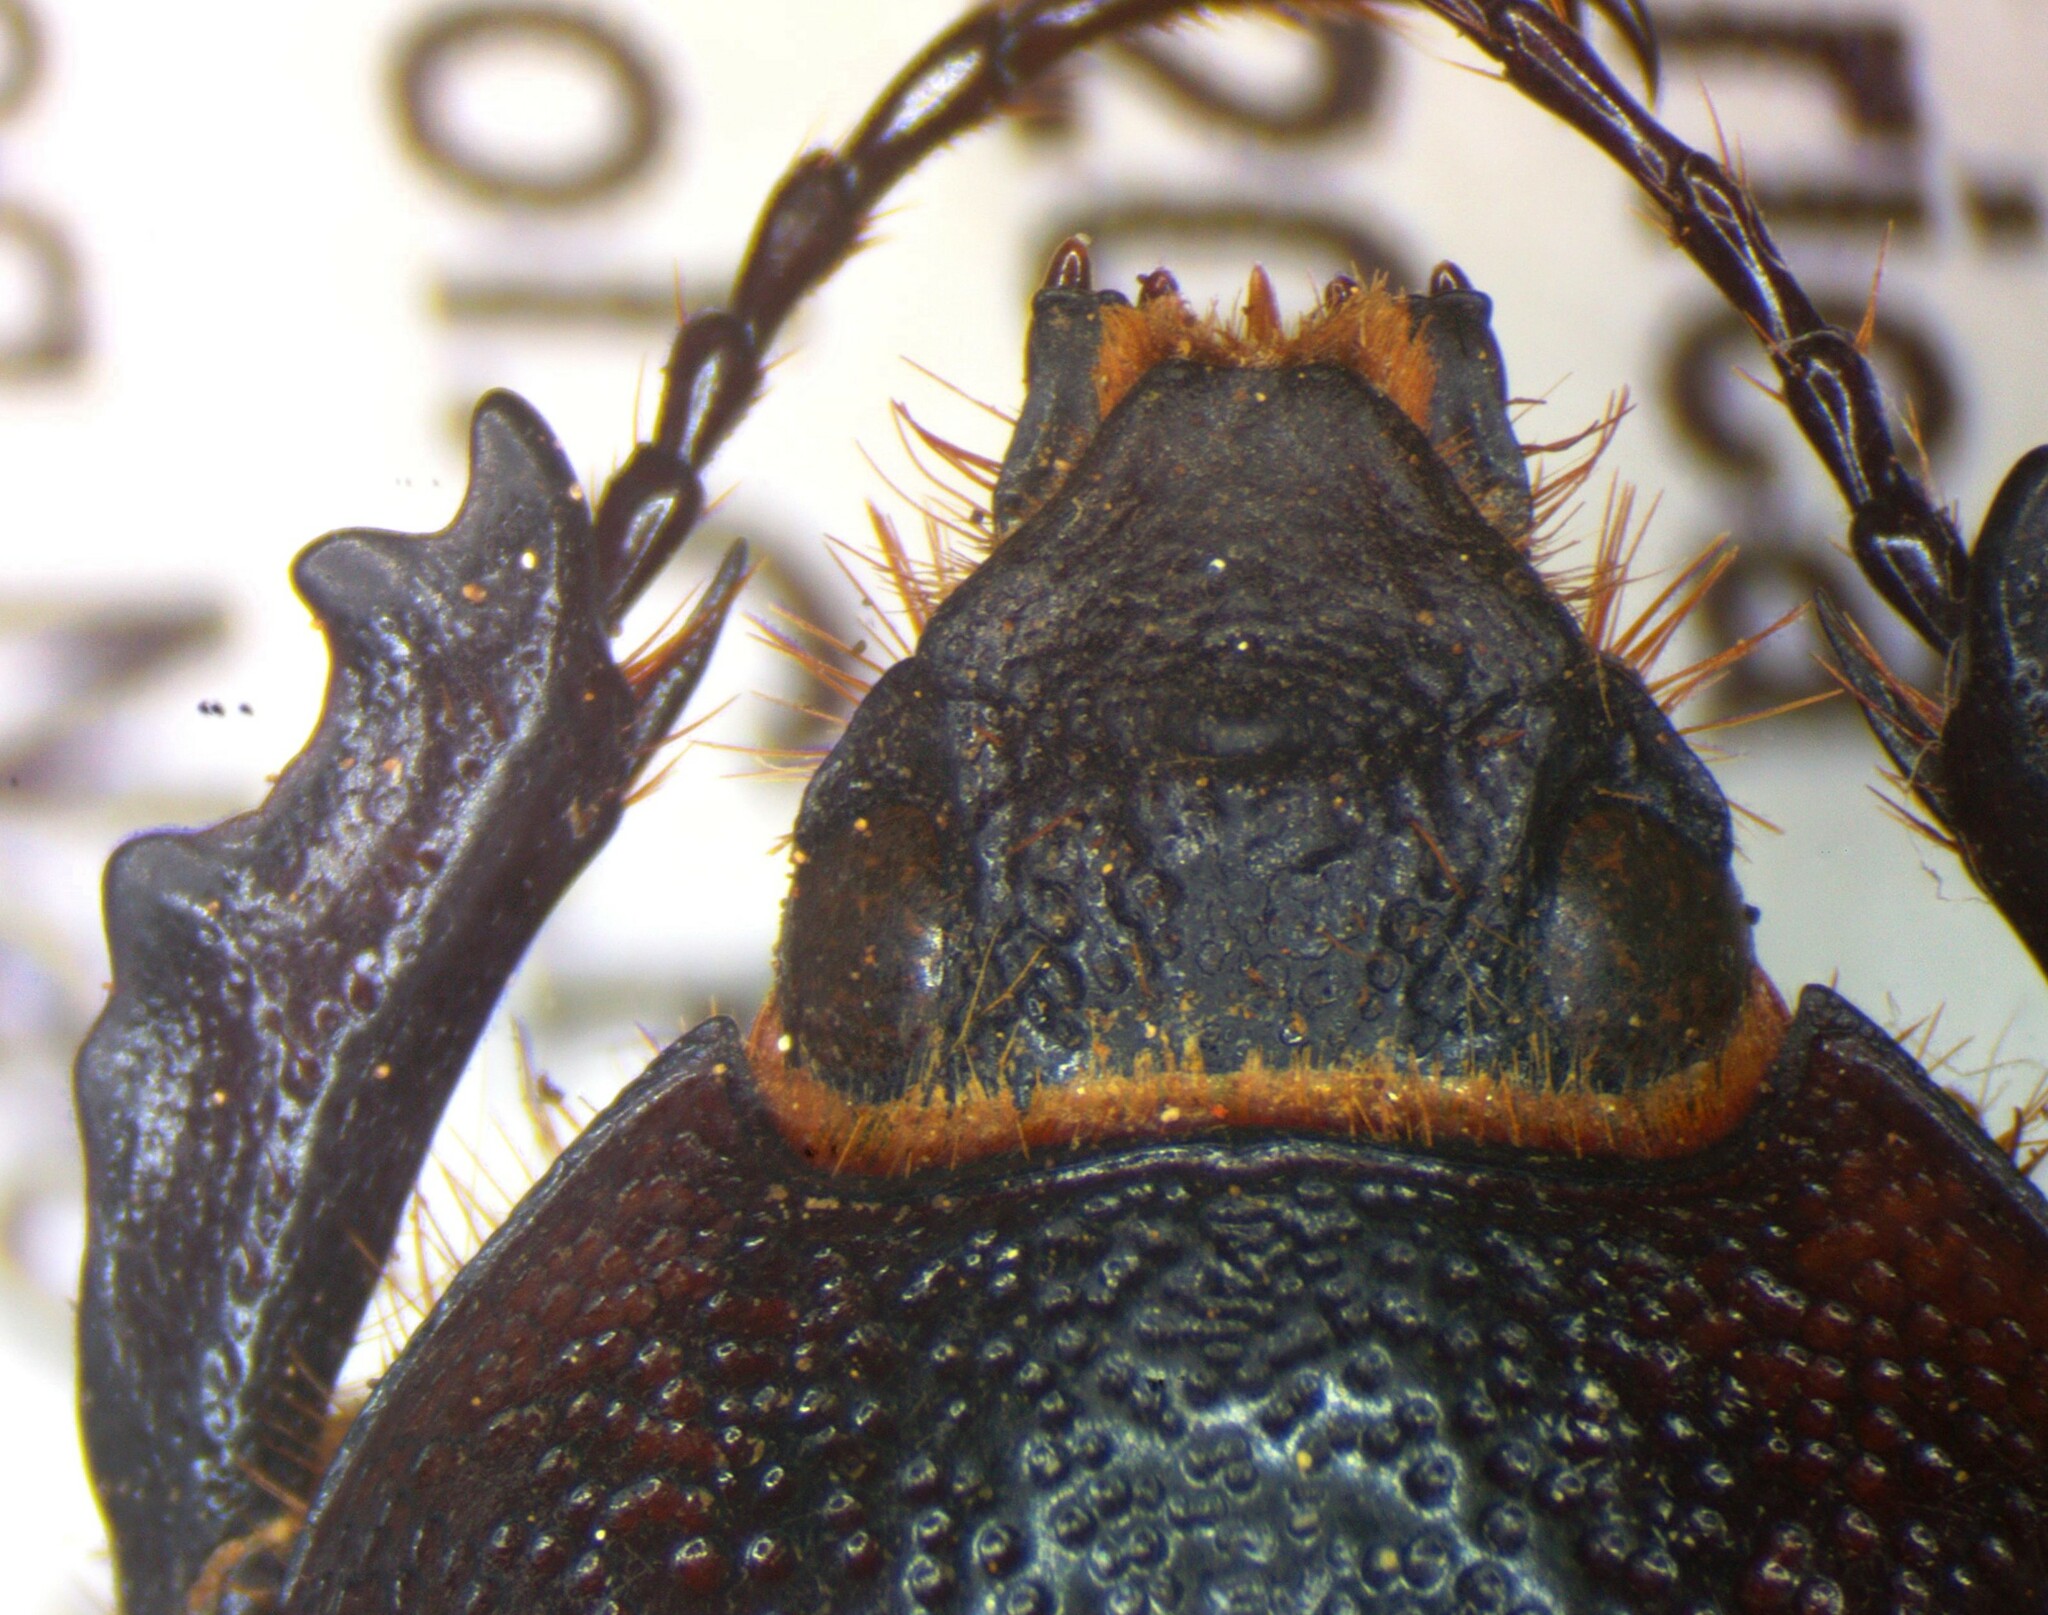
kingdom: Animalia
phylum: Arthropoda
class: Insecta
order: Coleoptera
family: Scarabaeidae
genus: Golofa
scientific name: Golofa minuta
